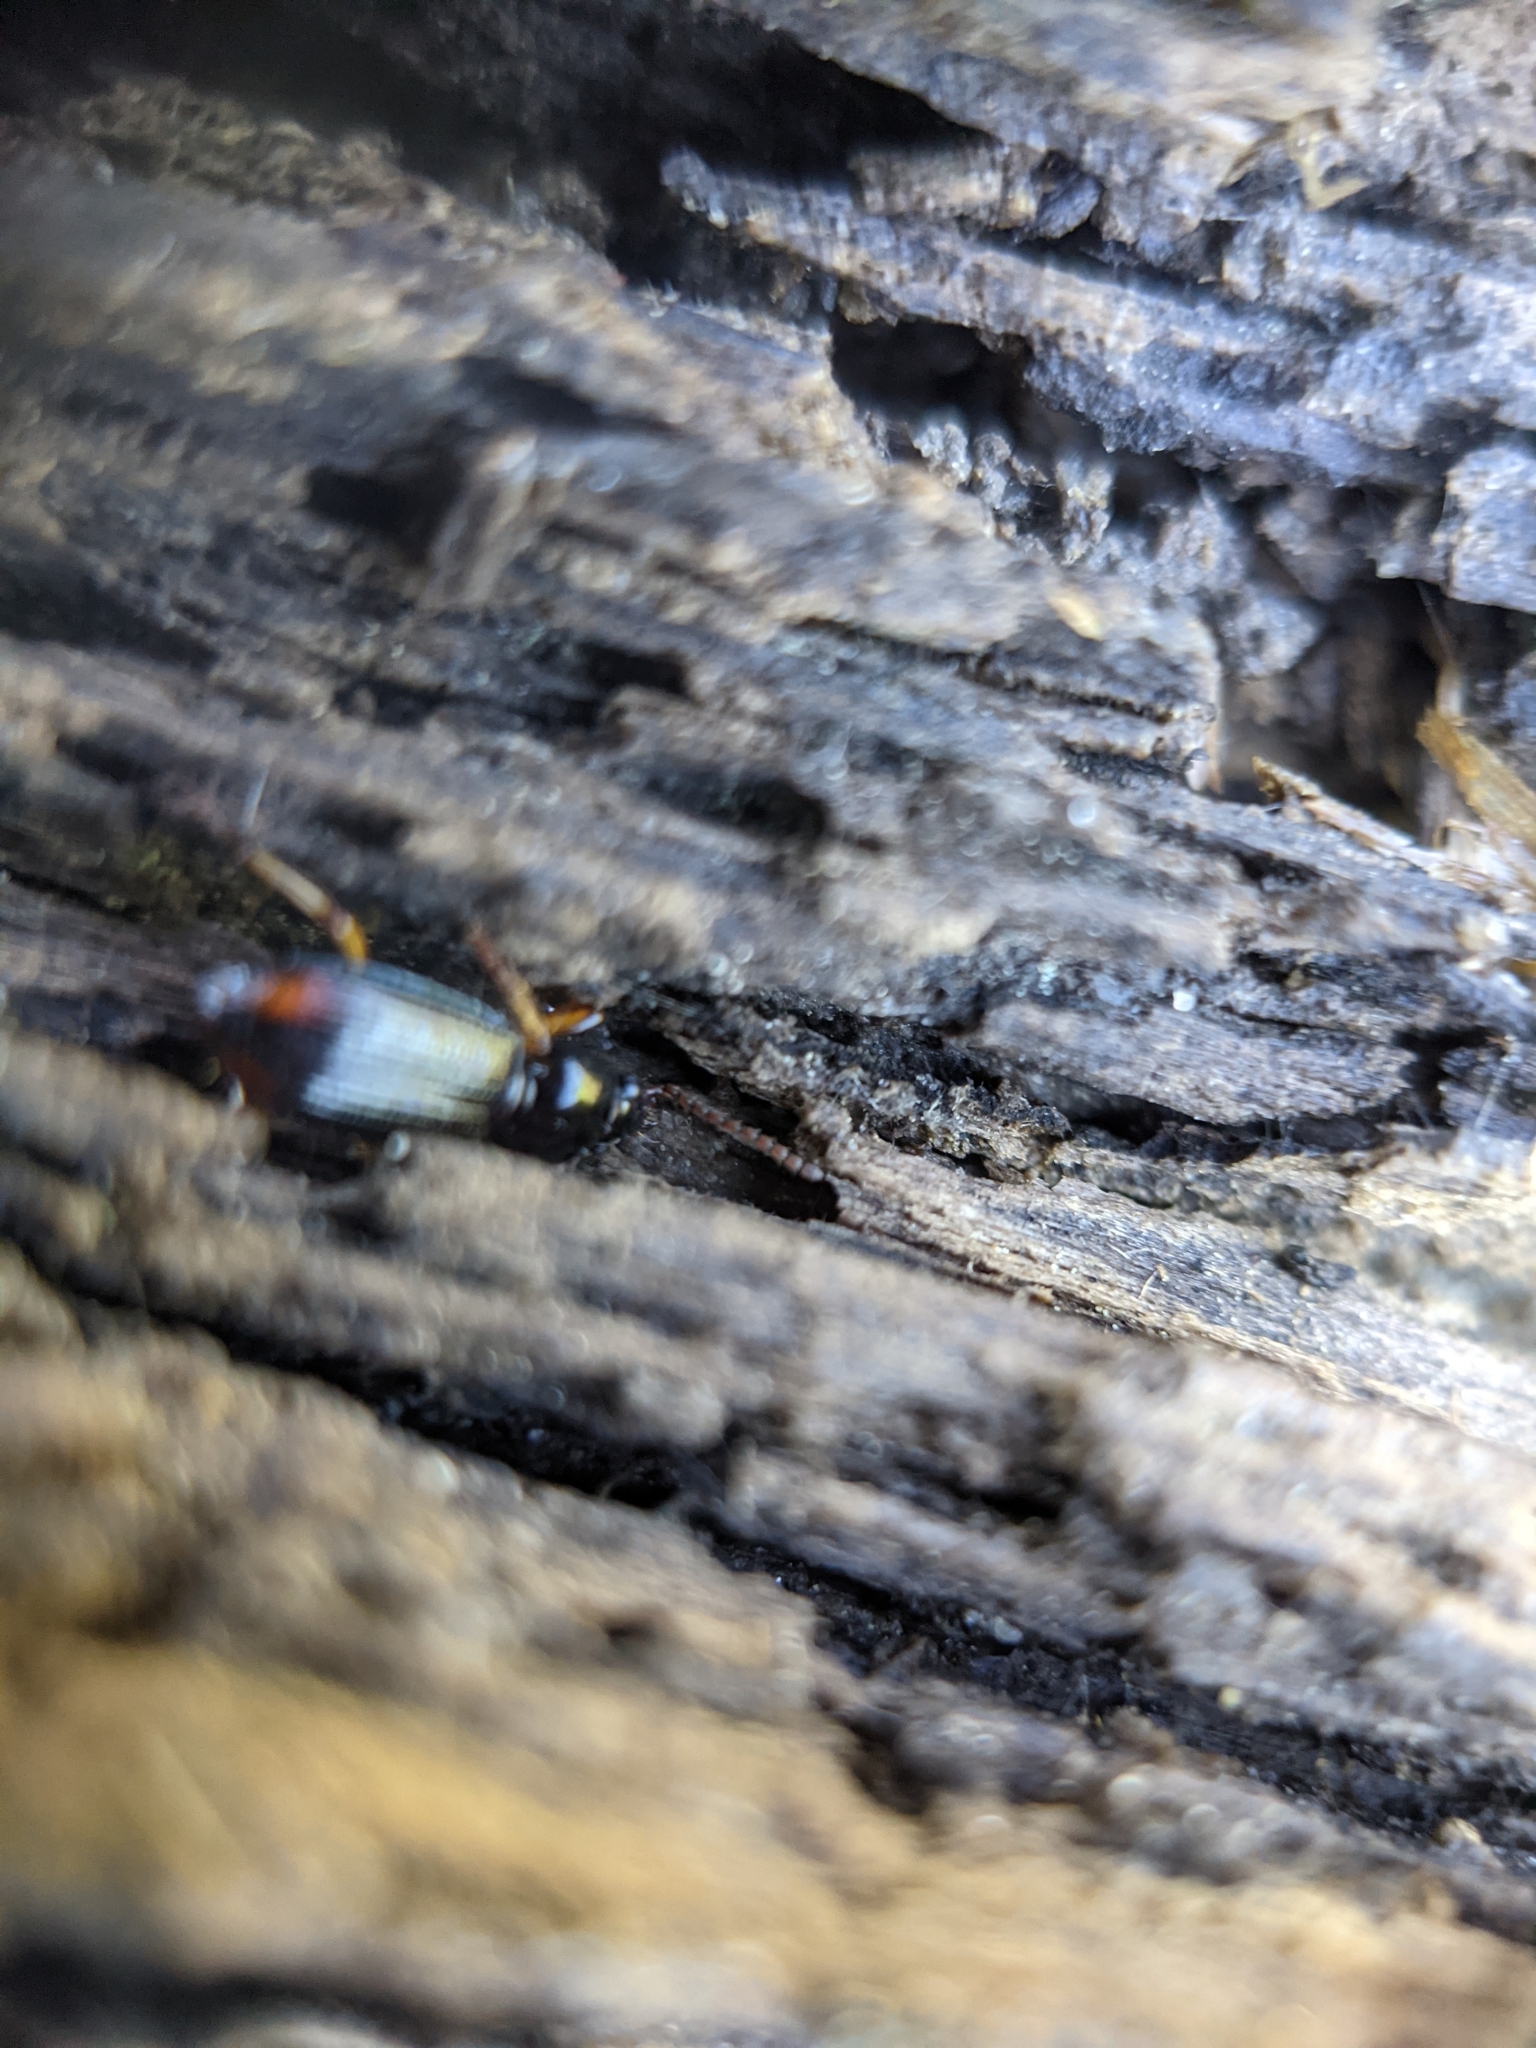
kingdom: Animalia
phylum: Arthropoda
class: Insecta
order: Coleoptera
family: Carabidae
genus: Aspidoglossa
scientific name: Aspidoglossa subangulata
